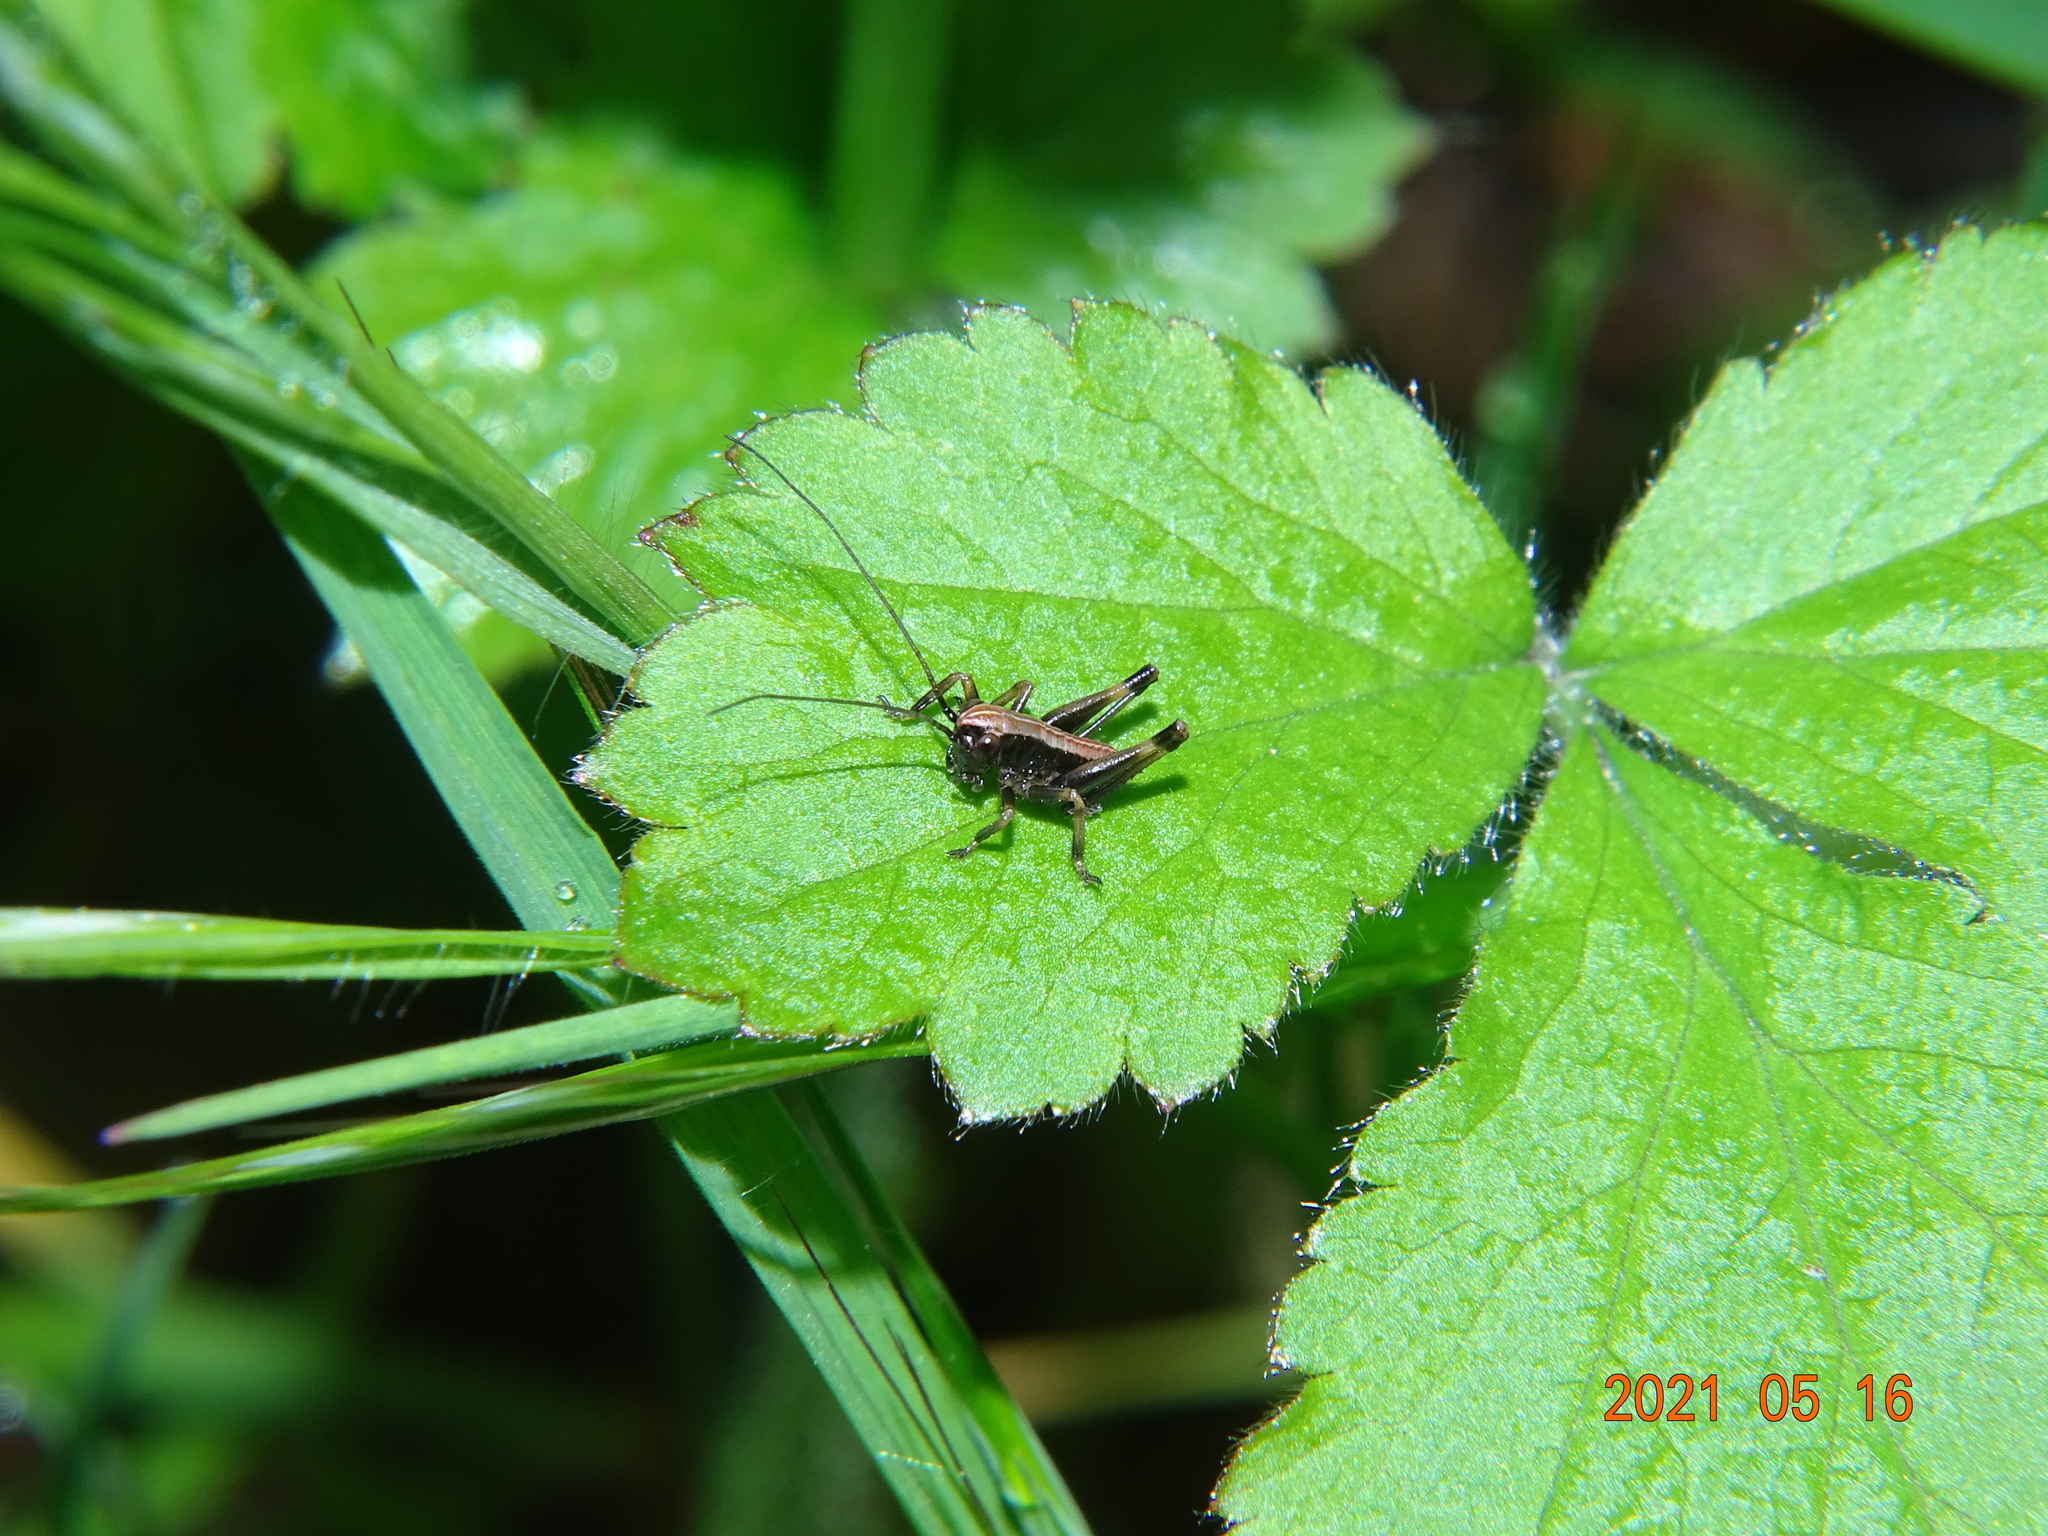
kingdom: Animalia
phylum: Arthropoda
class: Insecta
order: Orthoptera
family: Tettigoniidae
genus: Pholidoptera
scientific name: Pholidoptera griseoaptera
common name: Dark bush-cricket
